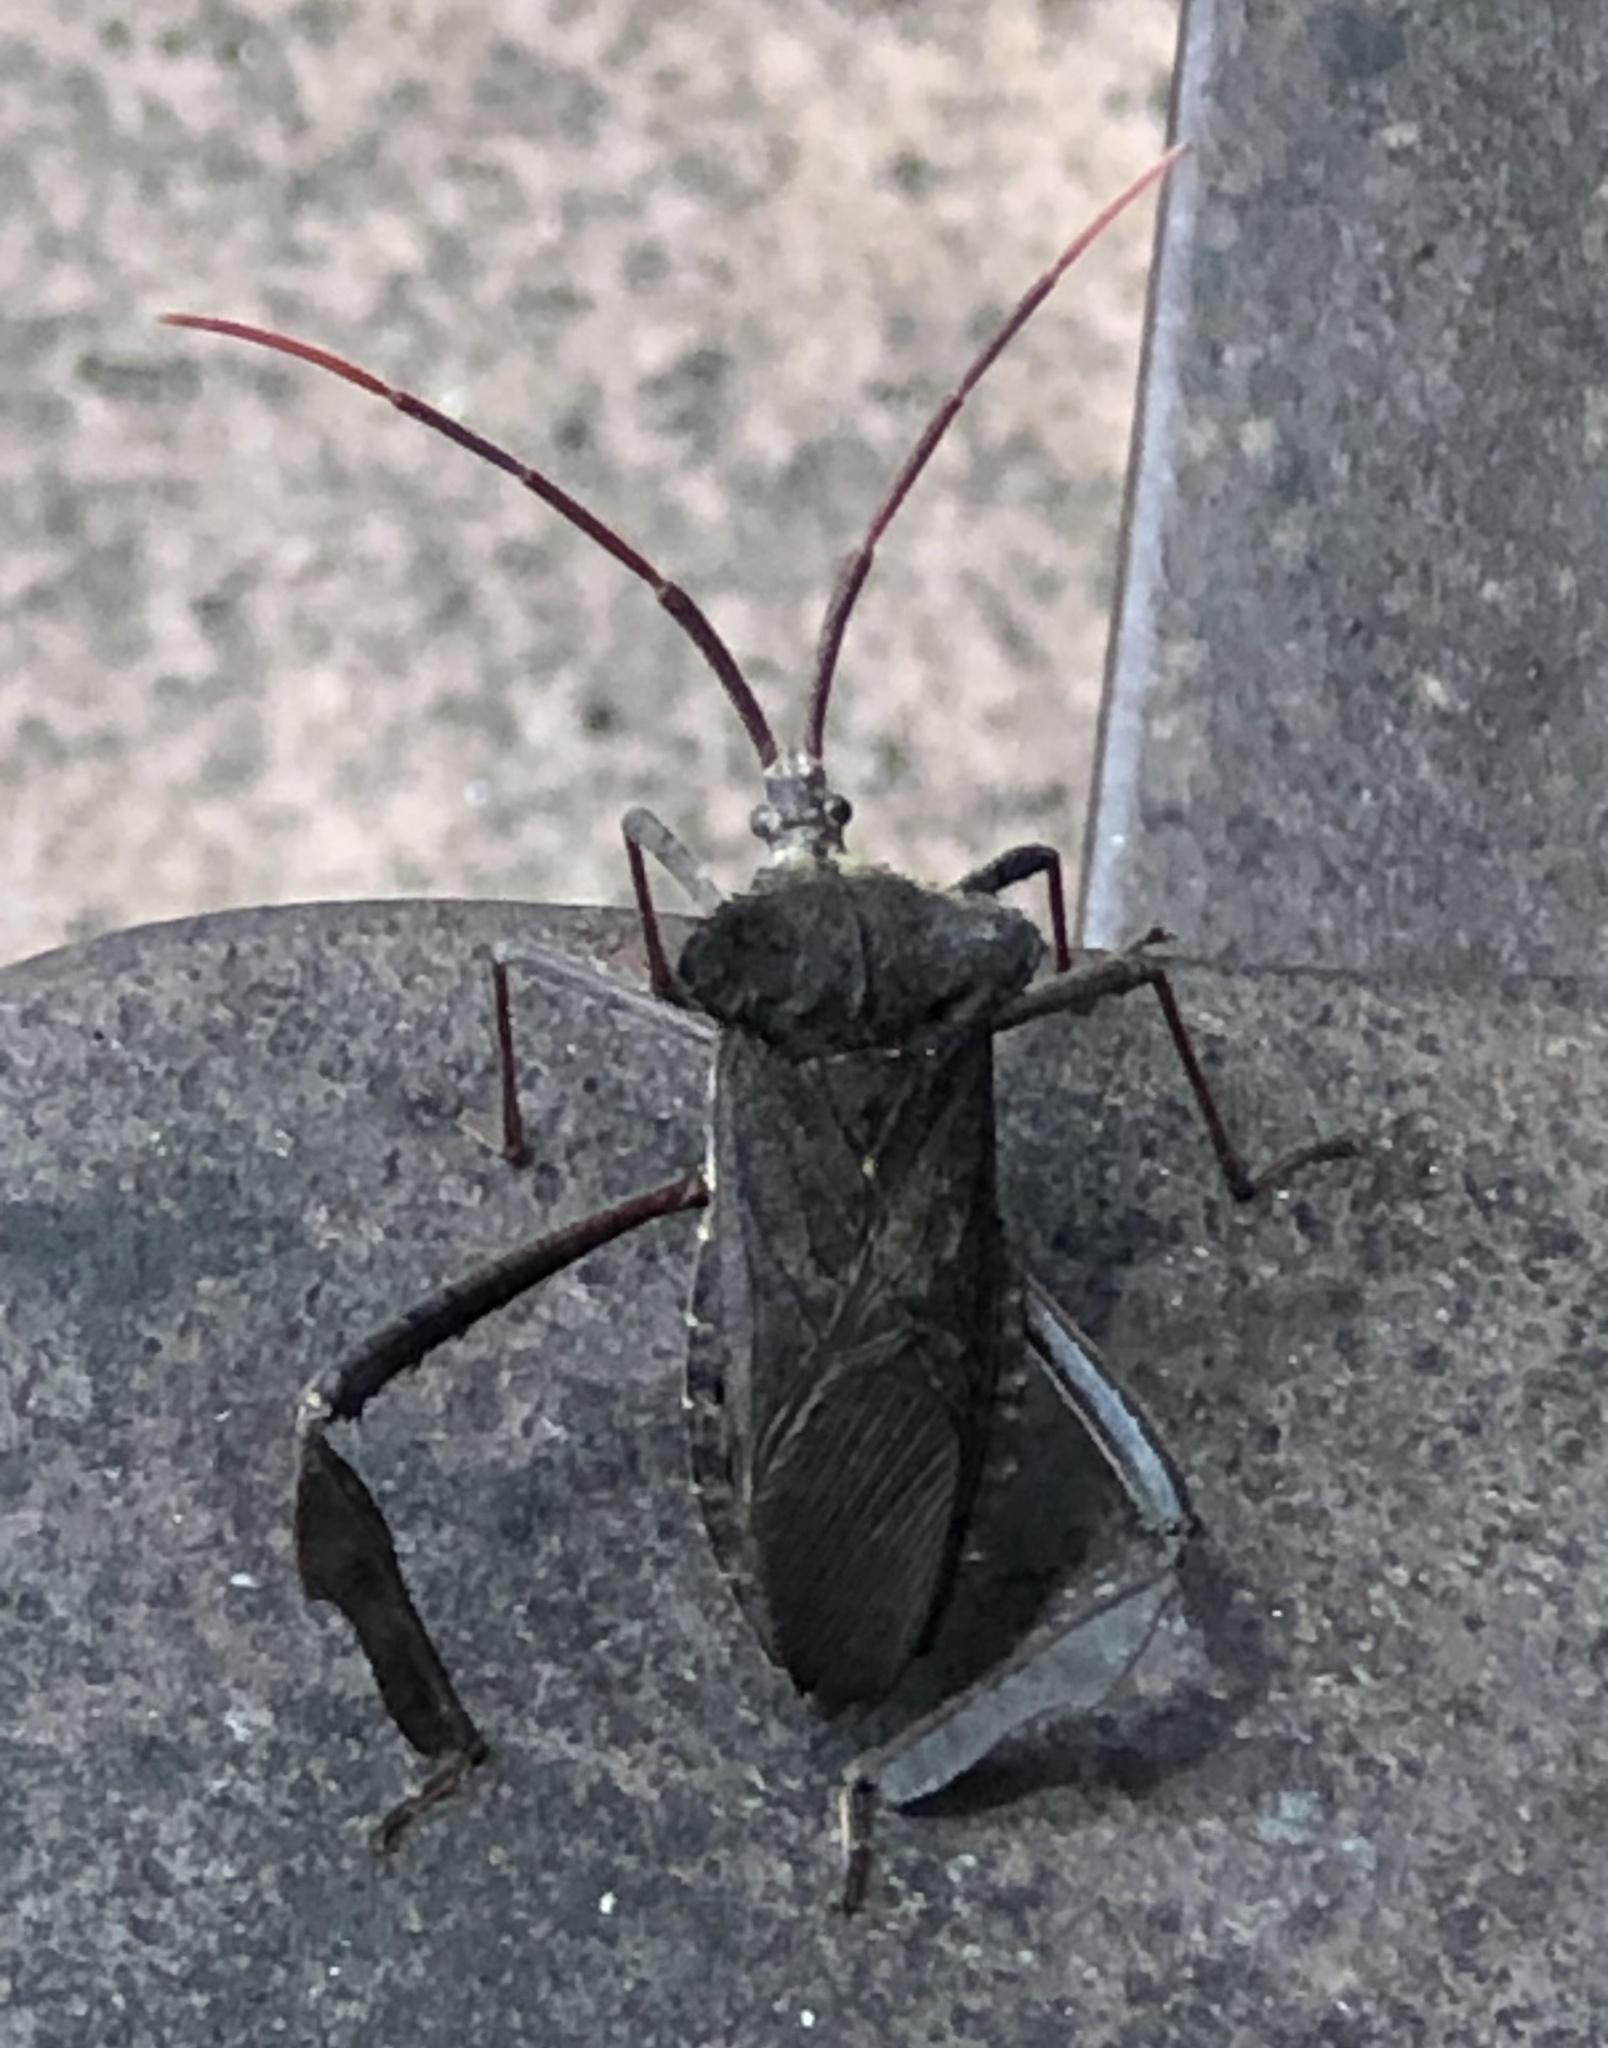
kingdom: Animalia
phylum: Arthropoda
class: Insecta
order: Hemiptera
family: Coreidae
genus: Acanthocephala
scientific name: Acanthocephala declivis
